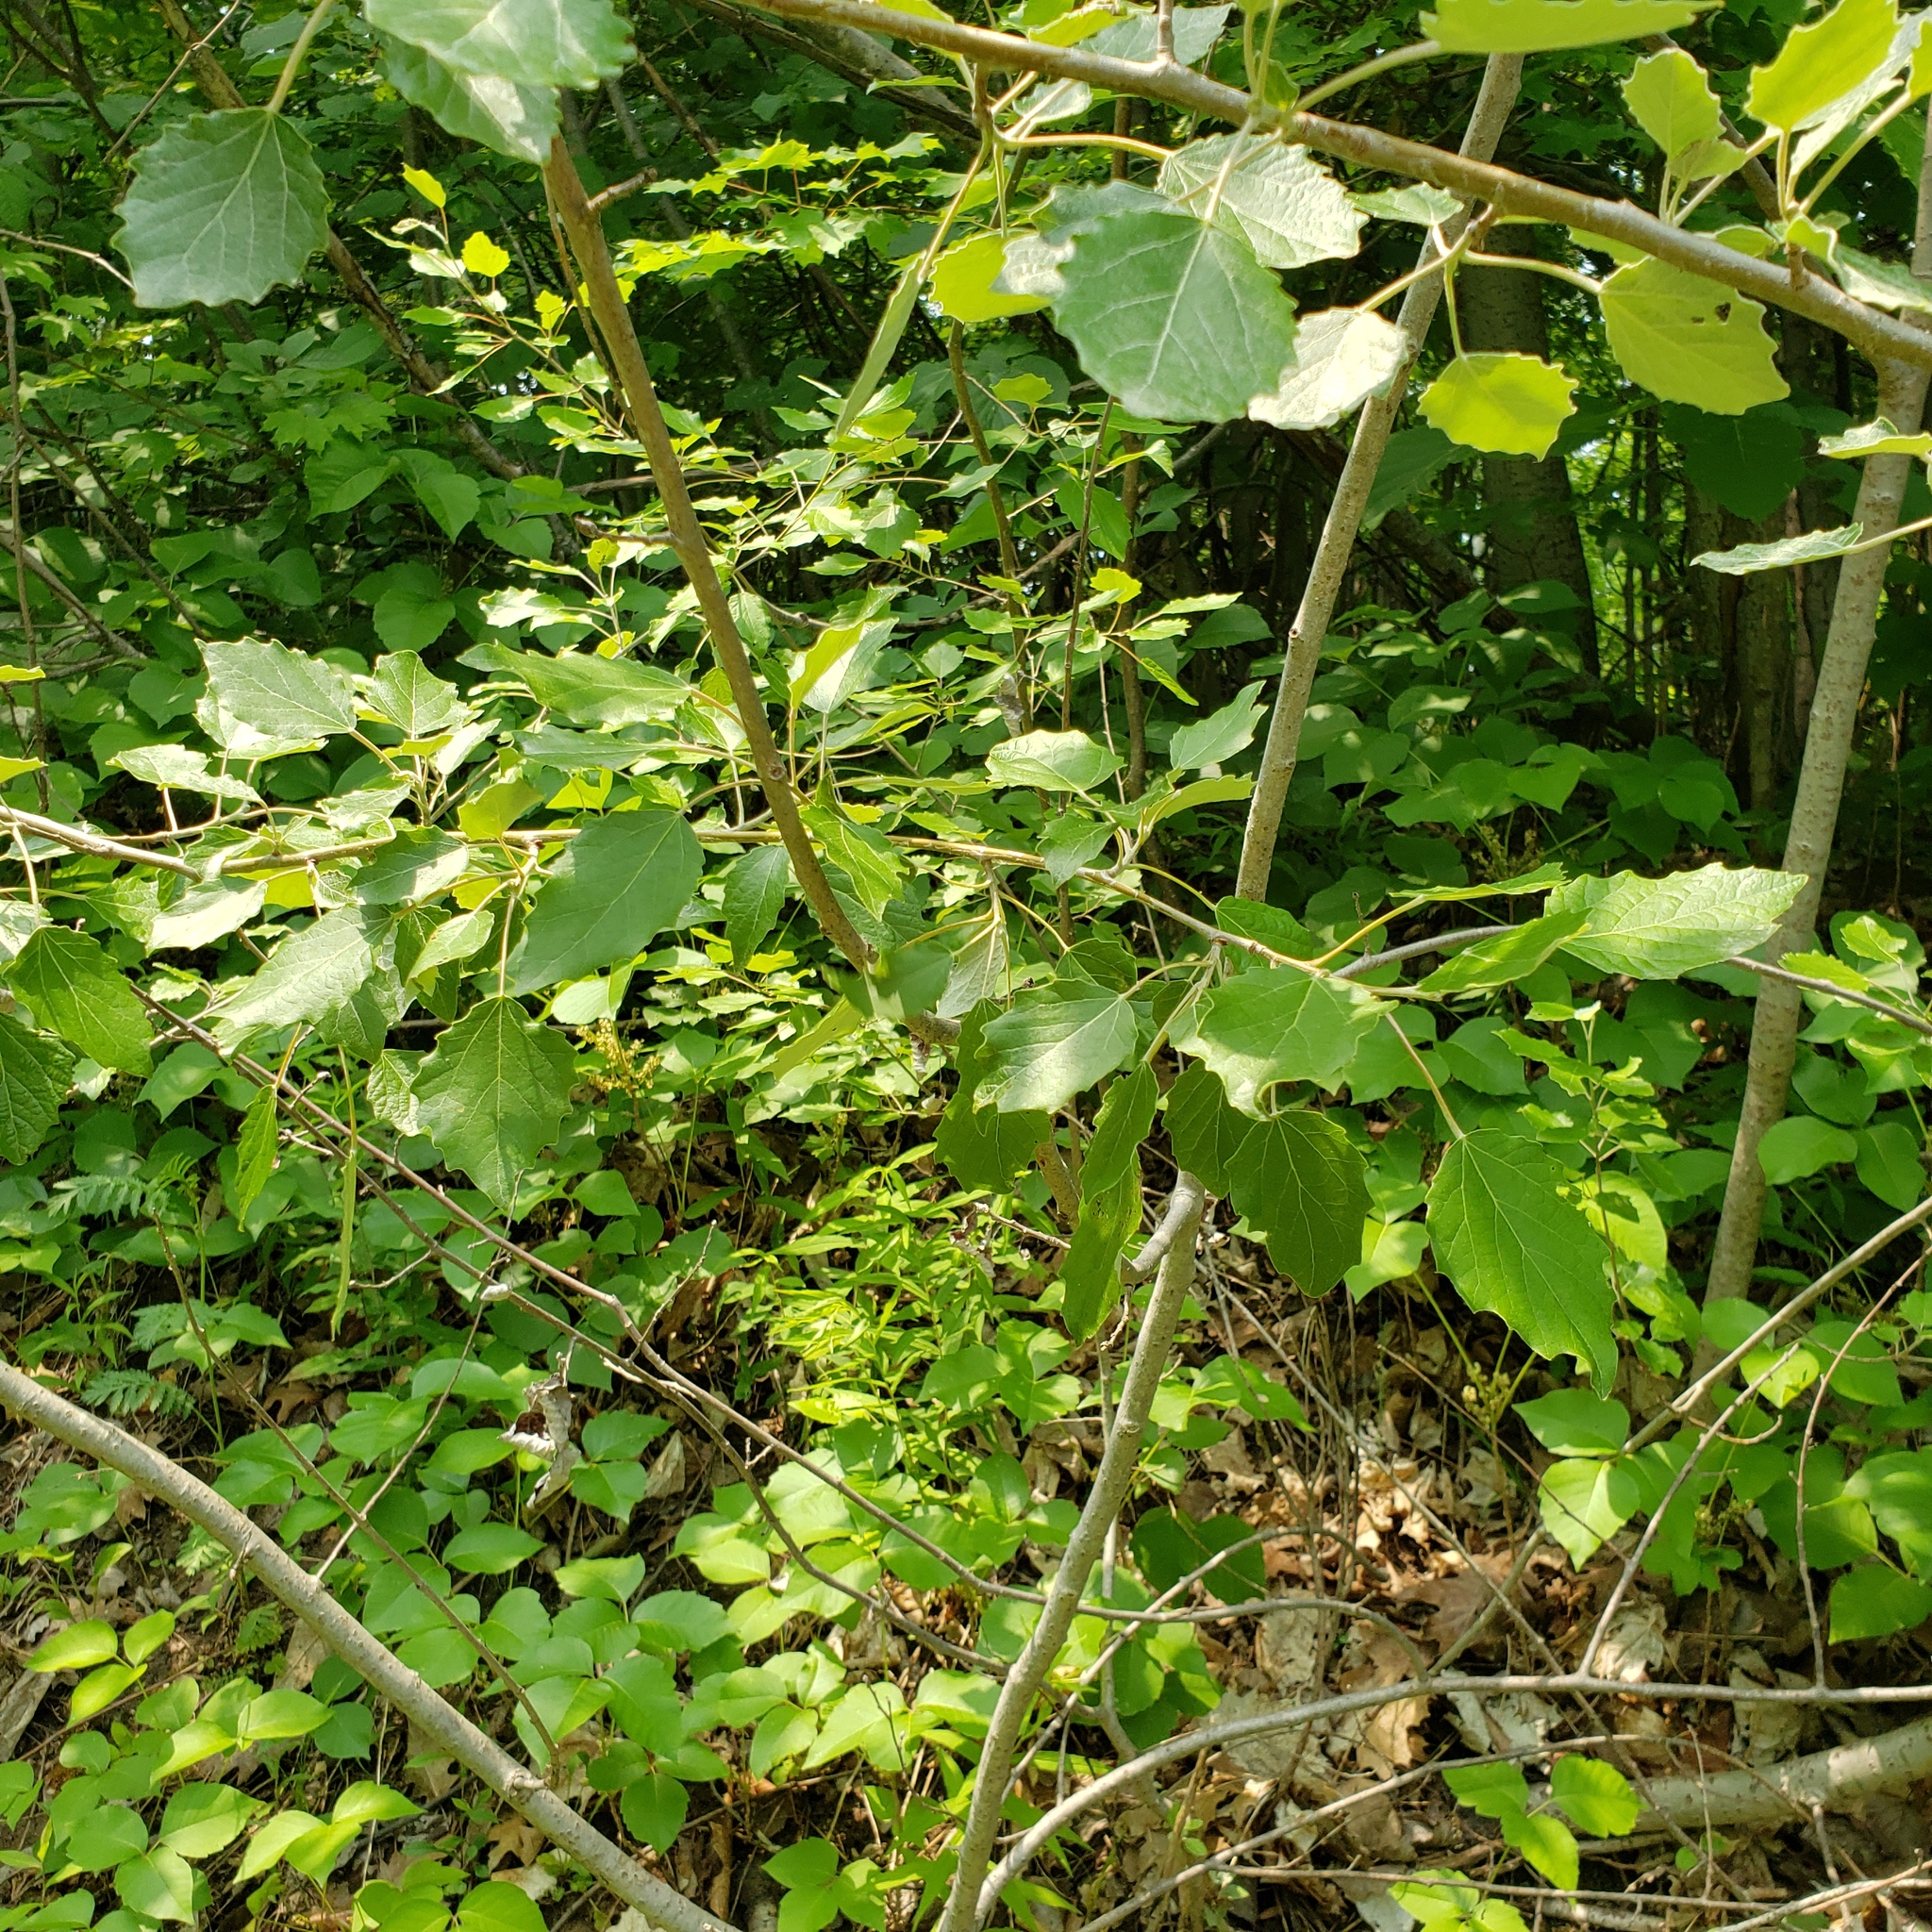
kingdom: Plantae
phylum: Tracheophyta
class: Magnoliopsida
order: Malpighiales
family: Salicaceae
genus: Populus
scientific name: Populus grandidentata
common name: Bigtooth aspen
